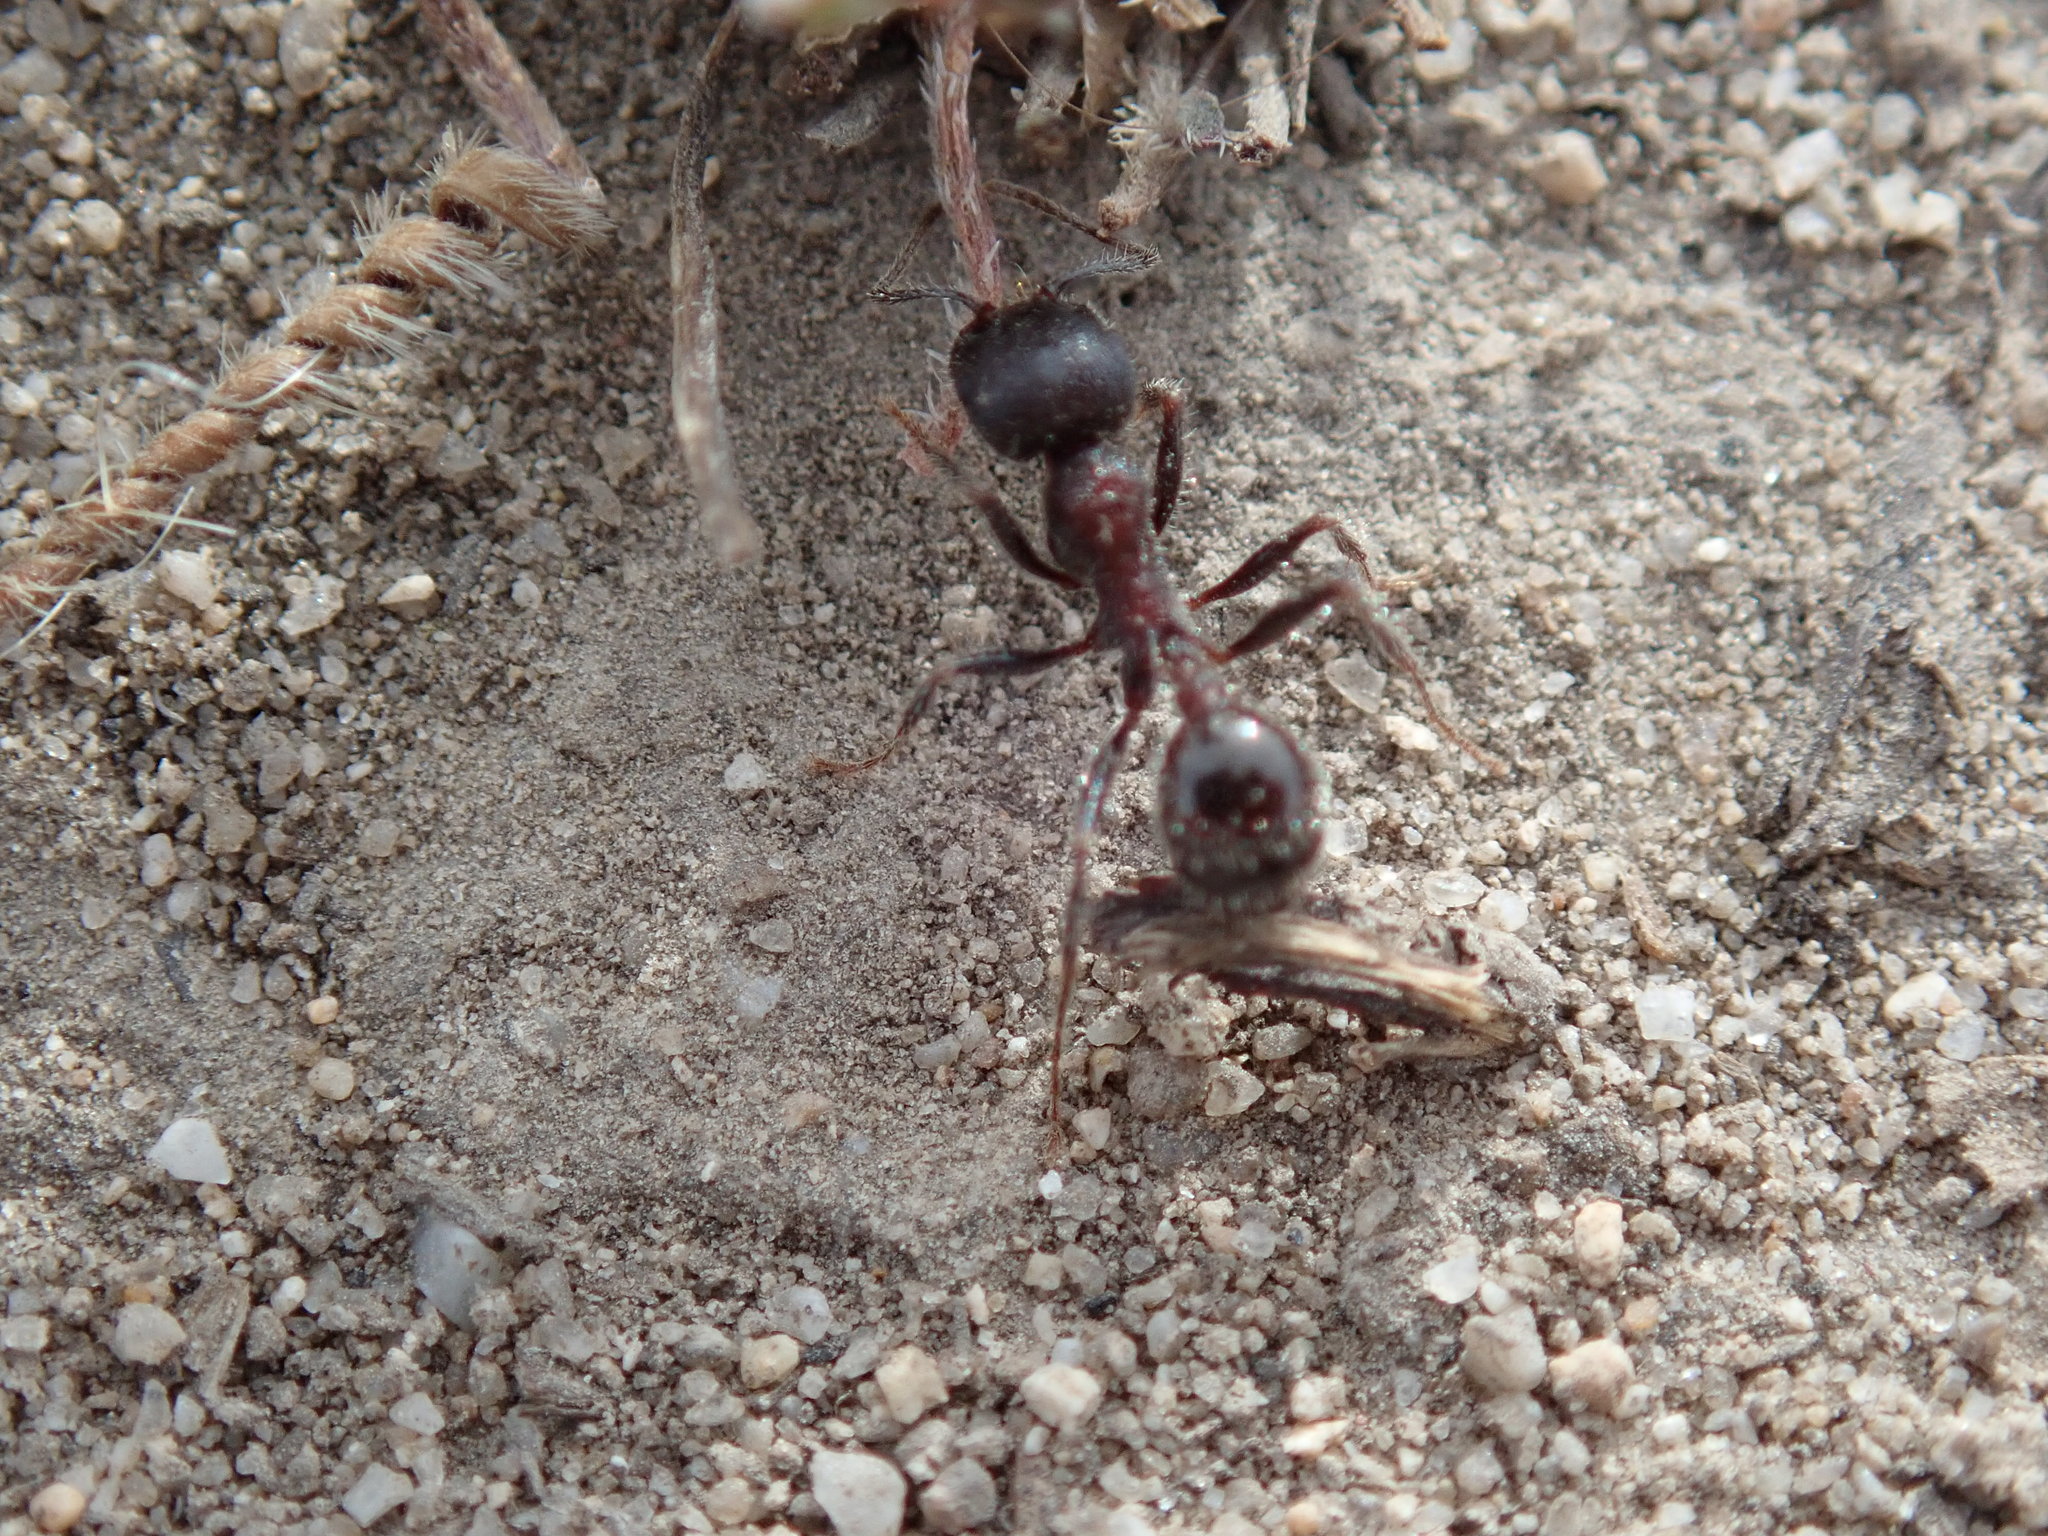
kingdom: Animalia
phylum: Arthropoda
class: Insecta
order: Hymenoptera
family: Formicidae
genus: Veromessor
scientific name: Veromessor andrei
